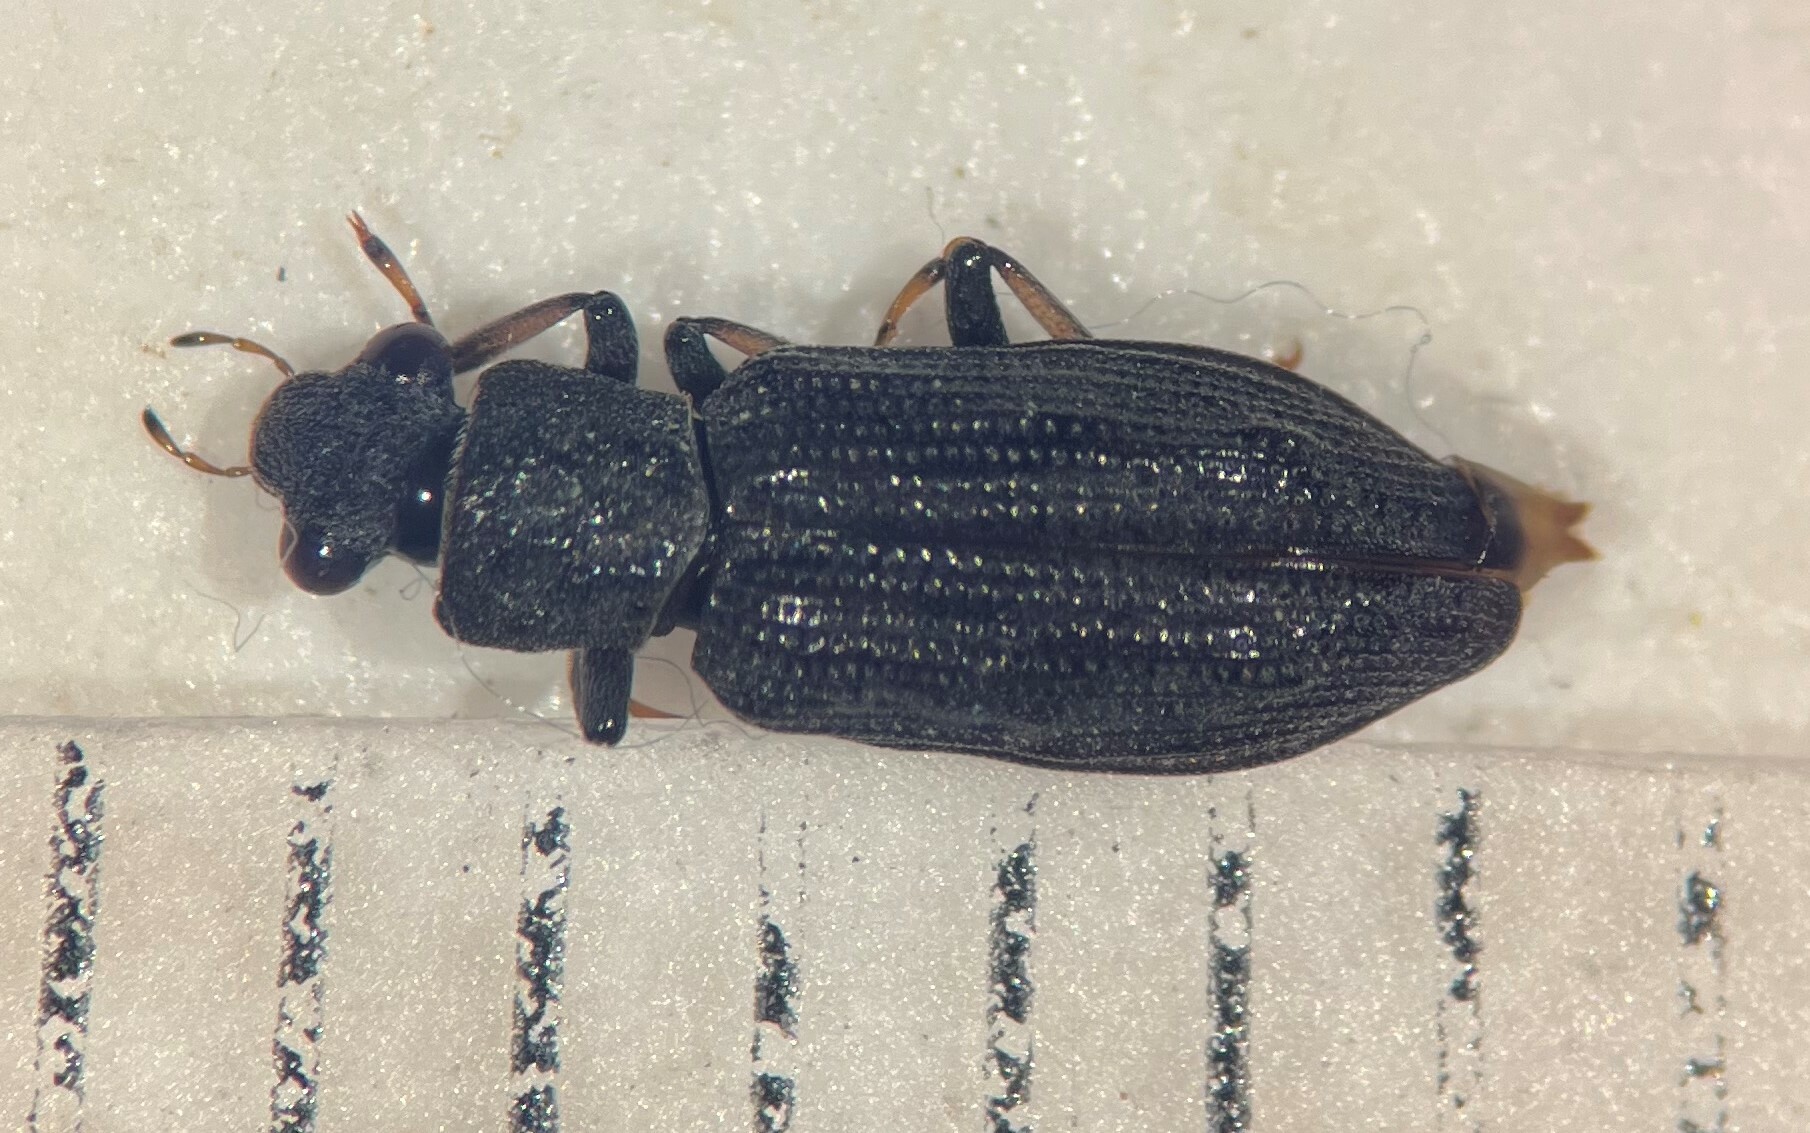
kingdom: Animalia
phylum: Arthropoda
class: Insecta
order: Coleoptera
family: Hydrochidae
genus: Hydrochus
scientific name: Hydrochus rugosus
